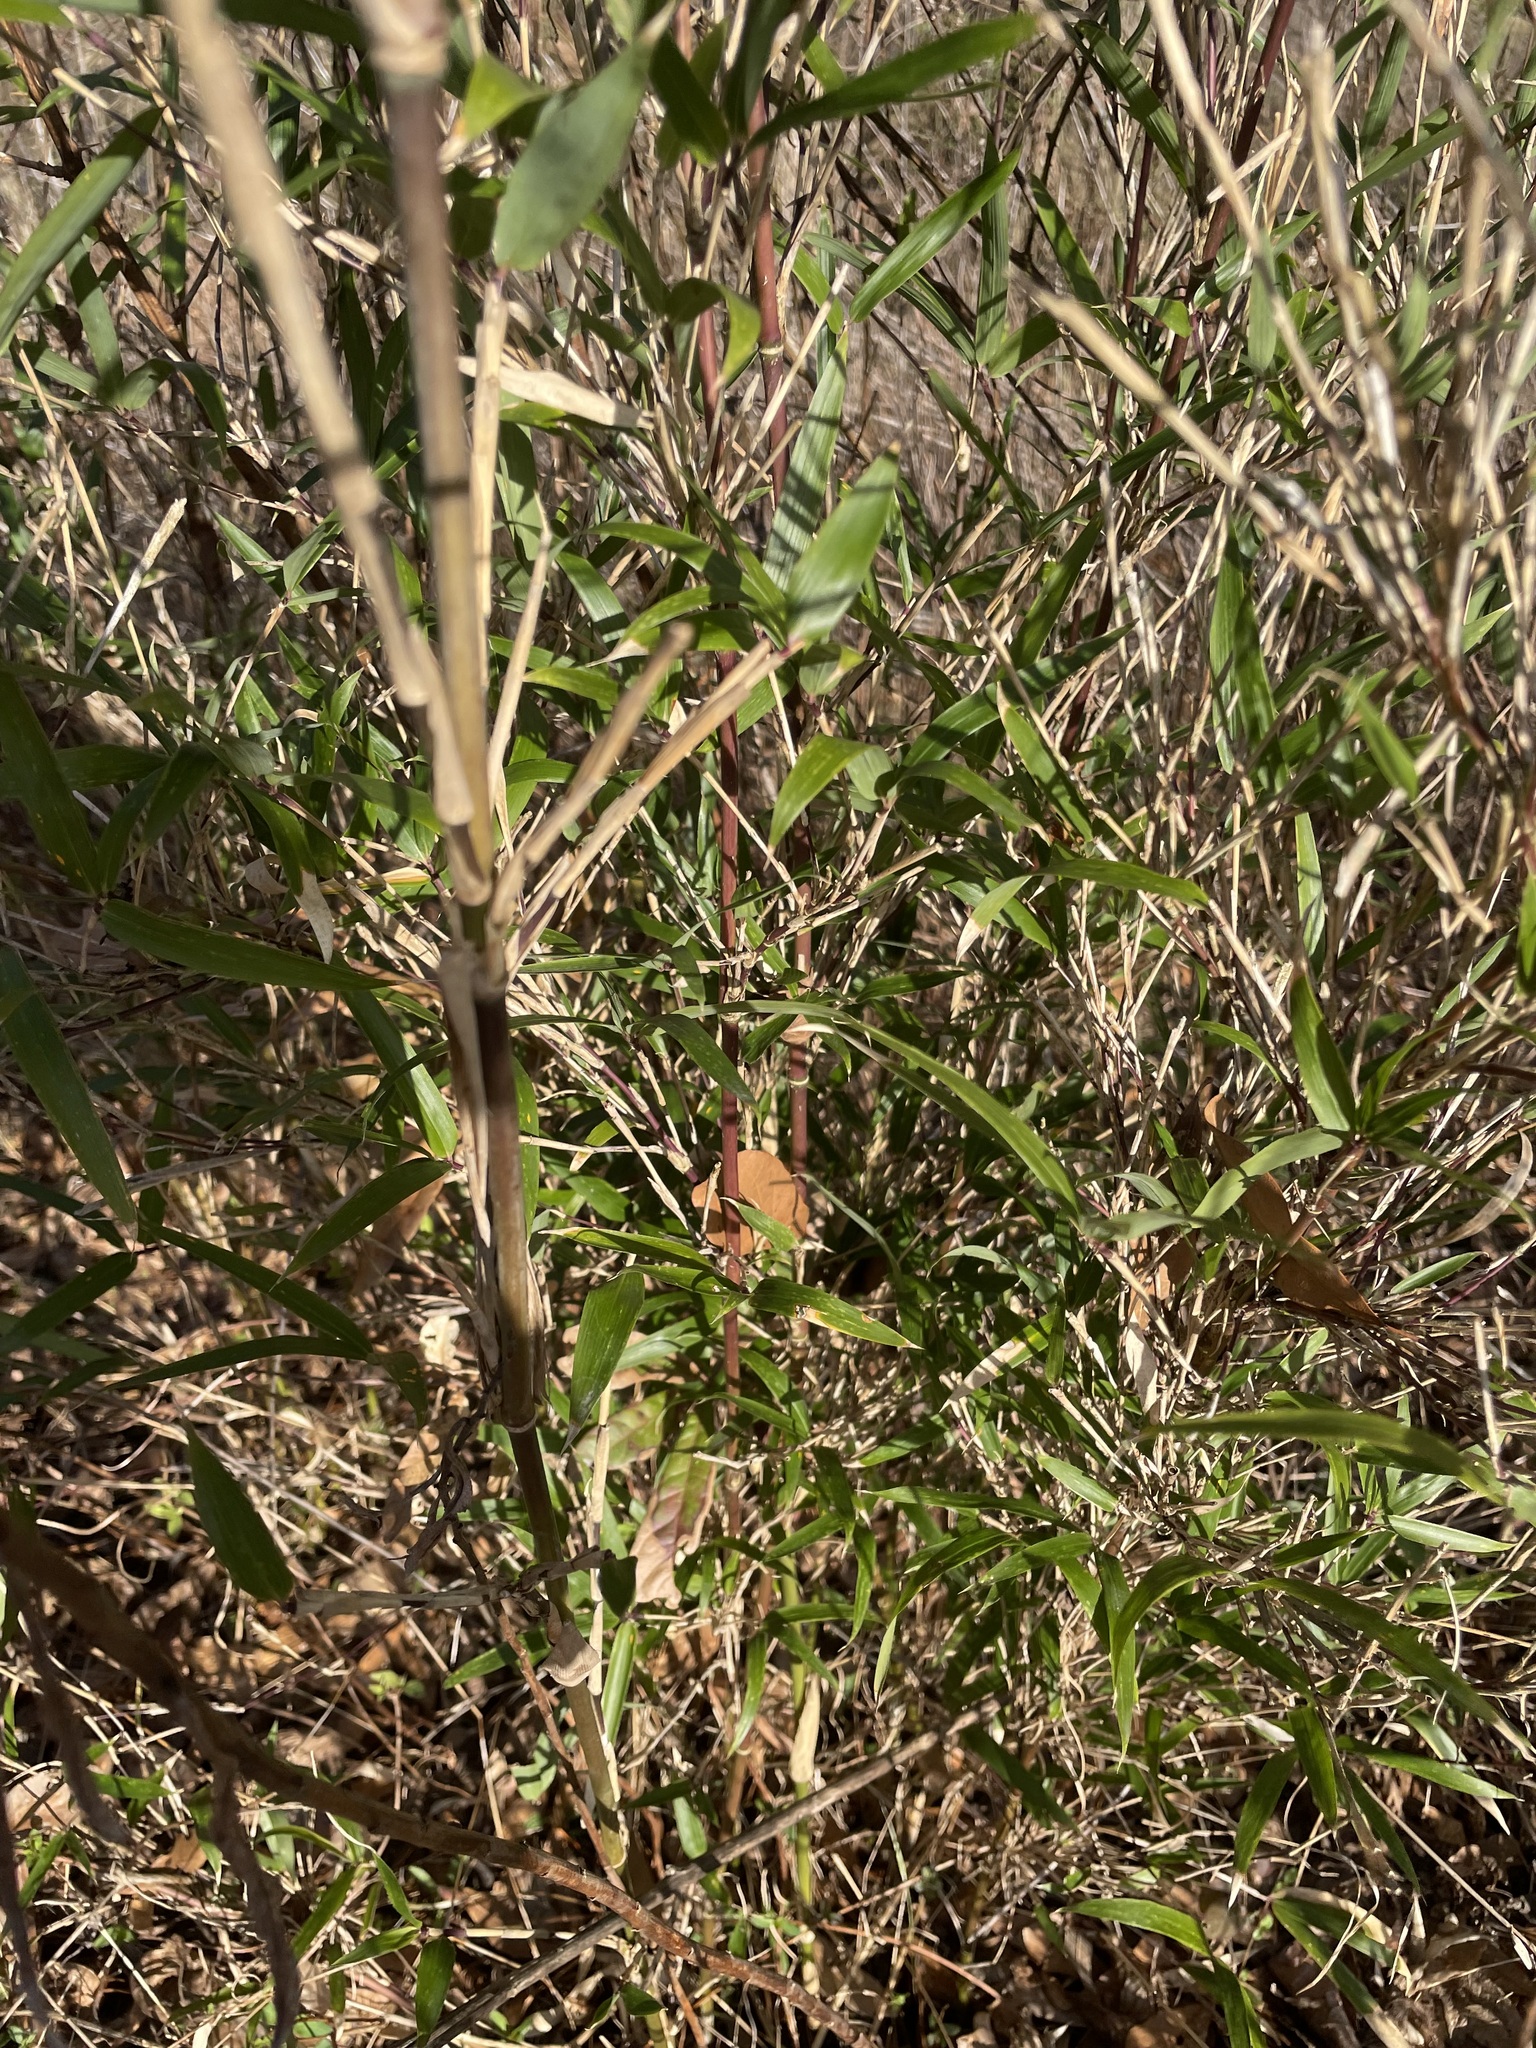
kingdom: Plantae
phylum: Tracheophyta
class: Liliopsida
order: Poales
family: Poaceae
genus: Arundinaria
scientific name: Arundinaria gigantea
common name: Giant cane
